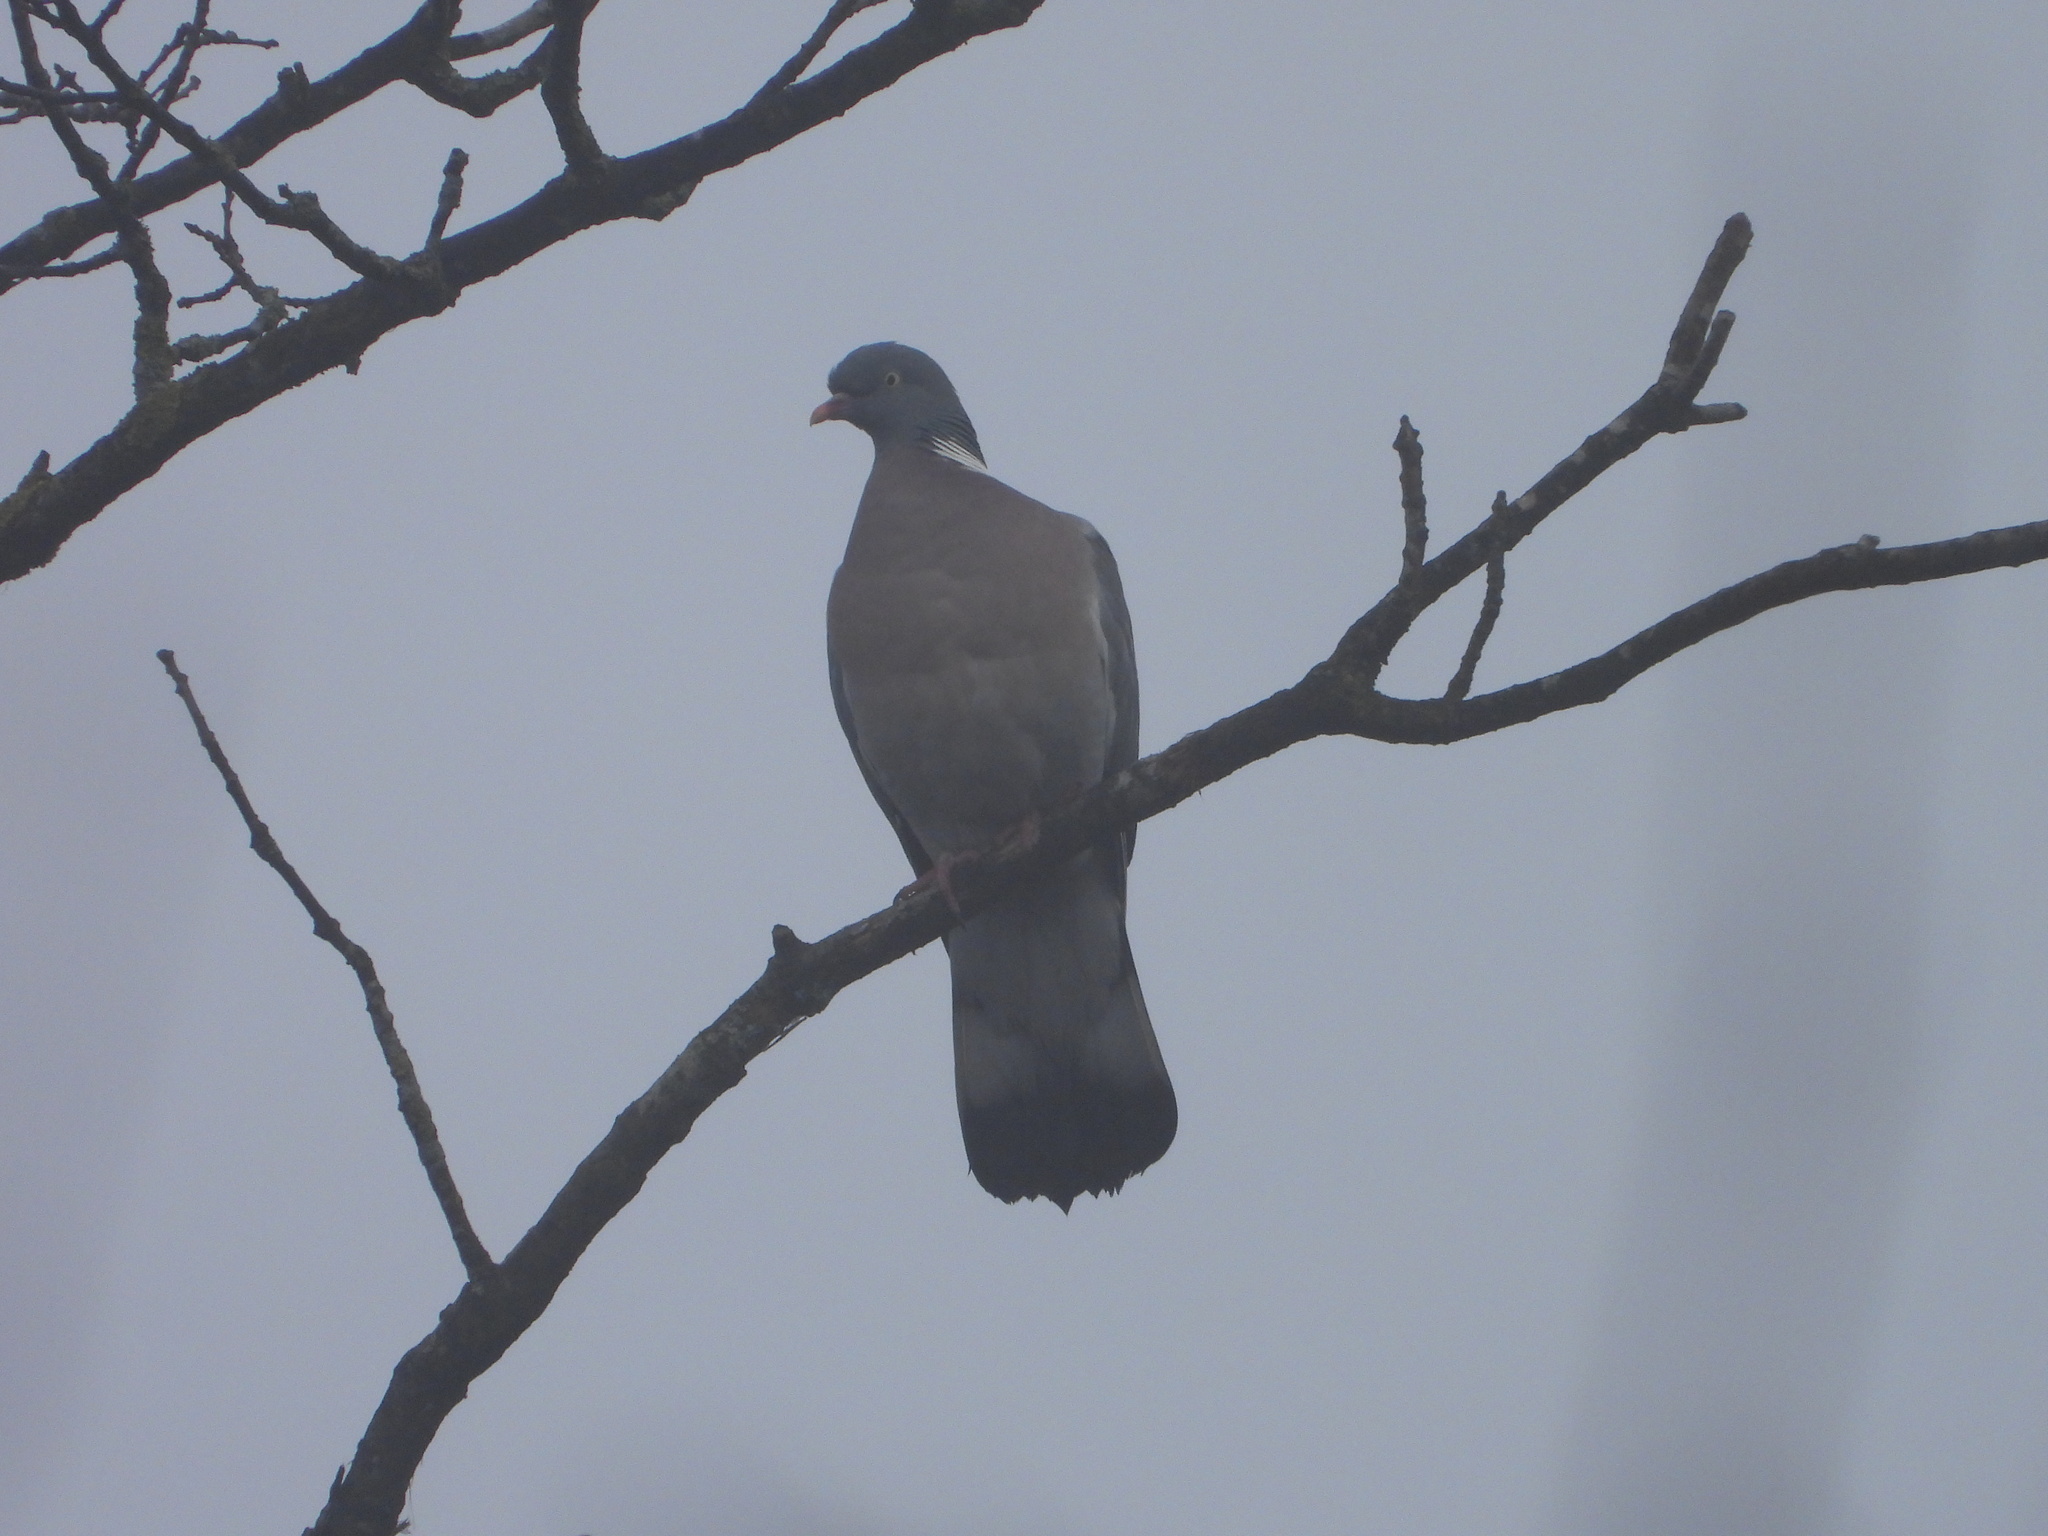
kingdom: Animalia
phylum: Chordata
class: Aves
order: Columbiformes
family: Columbidae
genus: Columba
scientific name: Columba palumbus
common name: Common wood pigeon
